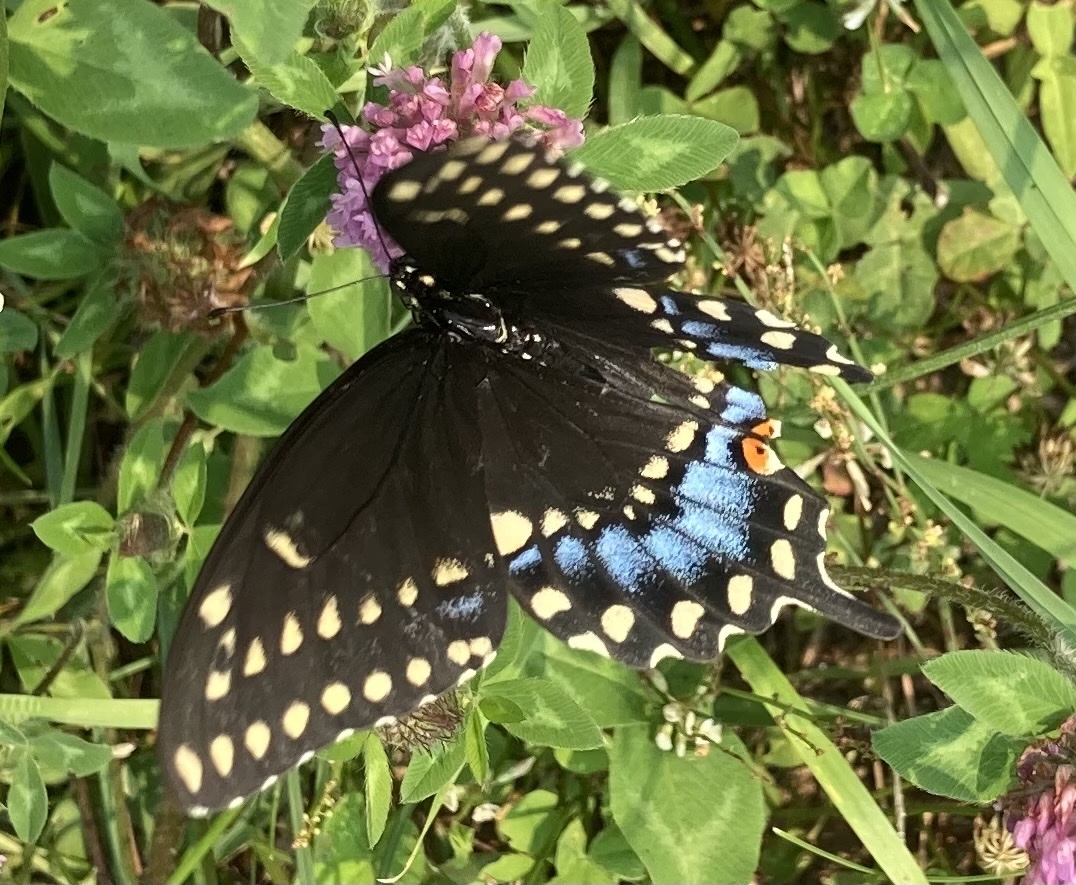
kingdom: Animalia
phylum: Arthropoda
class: Insecta
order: Lepidoptera
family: Papilionidae
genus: Papilio
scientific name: Papilio polyxenes
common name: Black swallowtail
